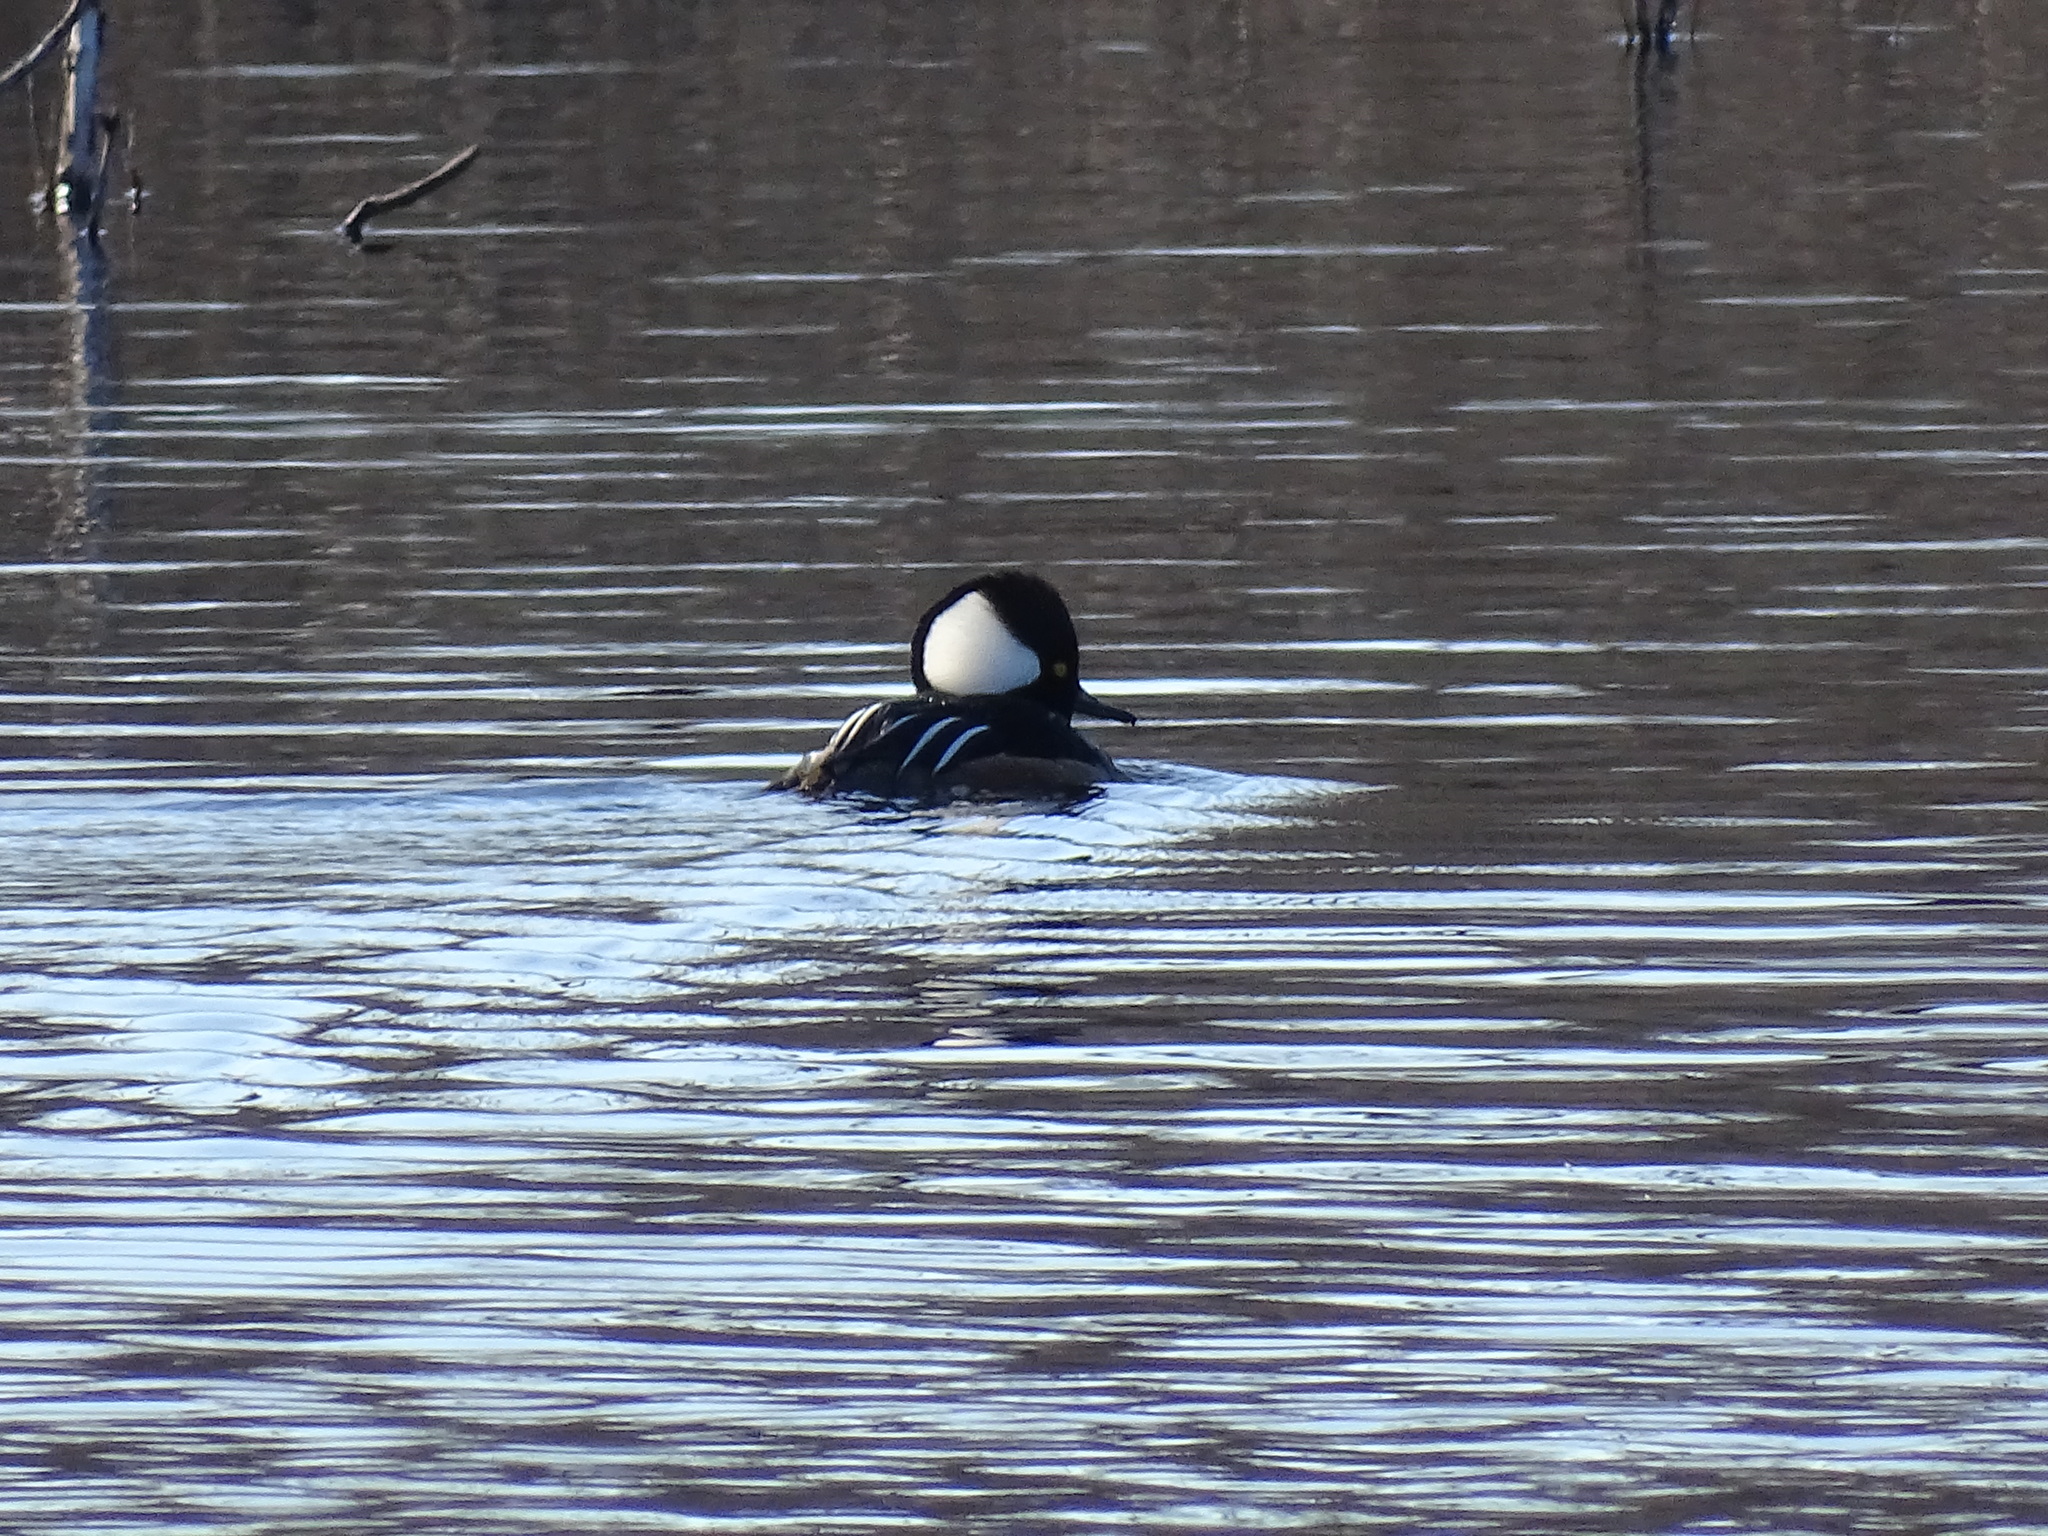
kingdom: Animalia
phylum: Chordata
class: Aves
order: Anseriformes
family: Anatidae
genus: Lophodytes
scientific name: Lophodytes cucullatus
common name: Hooded merganser
